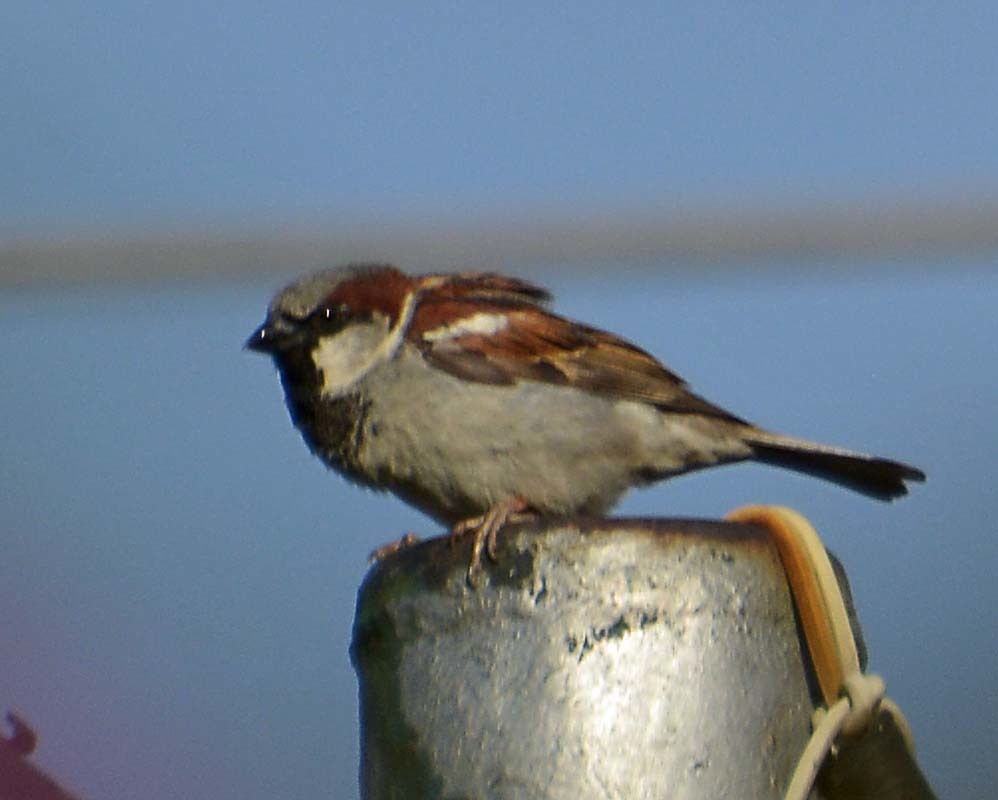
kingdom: Animalia
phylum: Chordata
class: Aves
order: Passeriformes
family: Passeridae
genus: Passer
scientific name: Passer domesticus
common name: House sparrow
